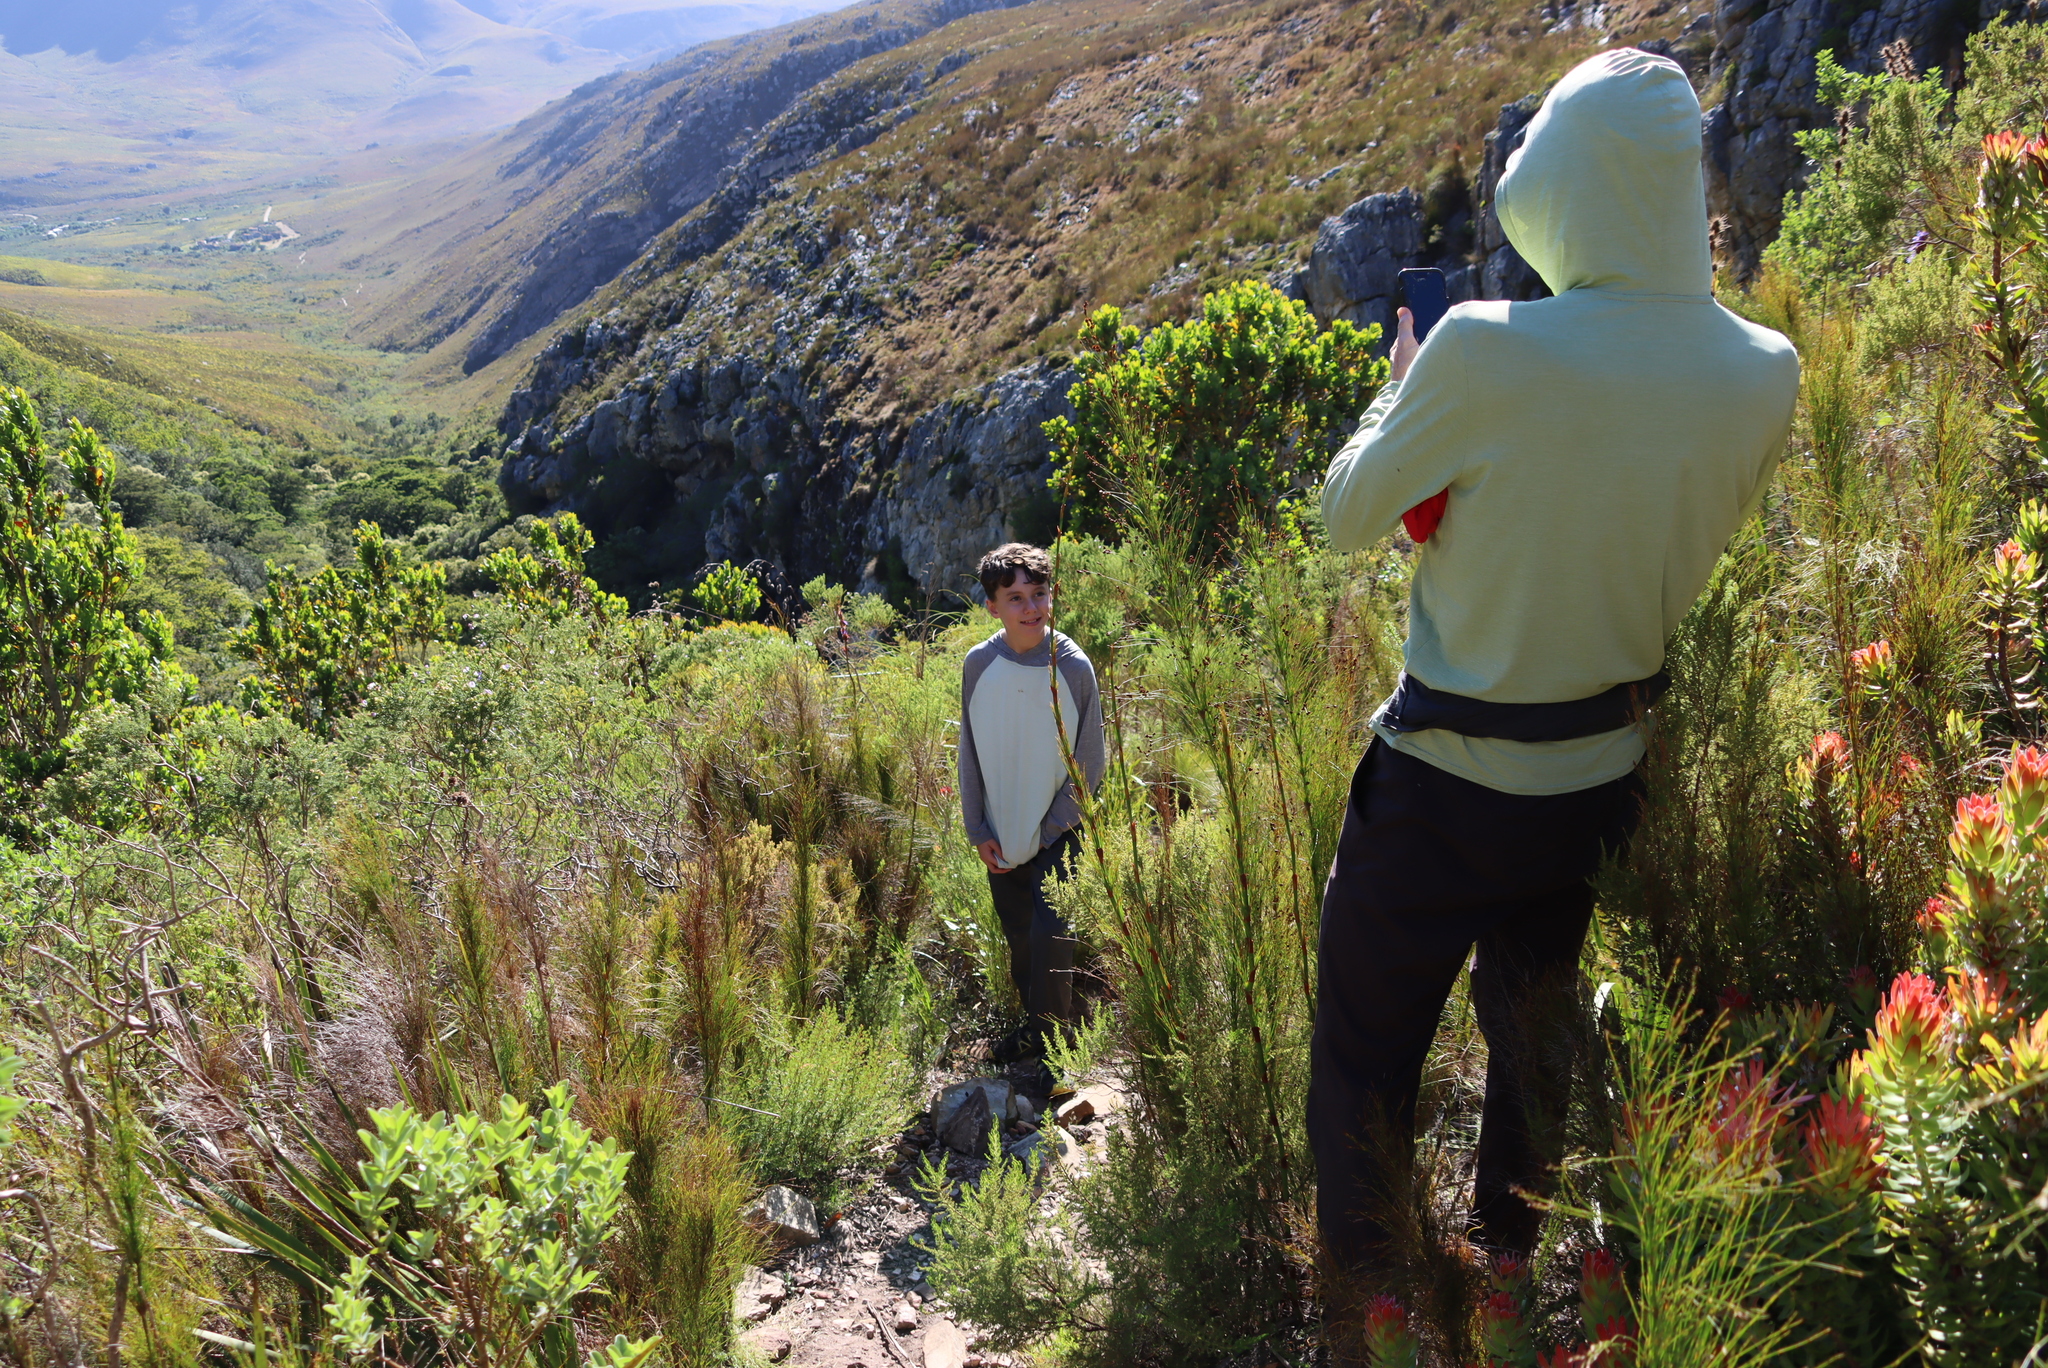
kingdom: Plantae
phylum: Tracheophyta
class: Liliopsida
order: Poales
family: Restionaceae
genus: Restio
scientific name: Restio subverticillatus
